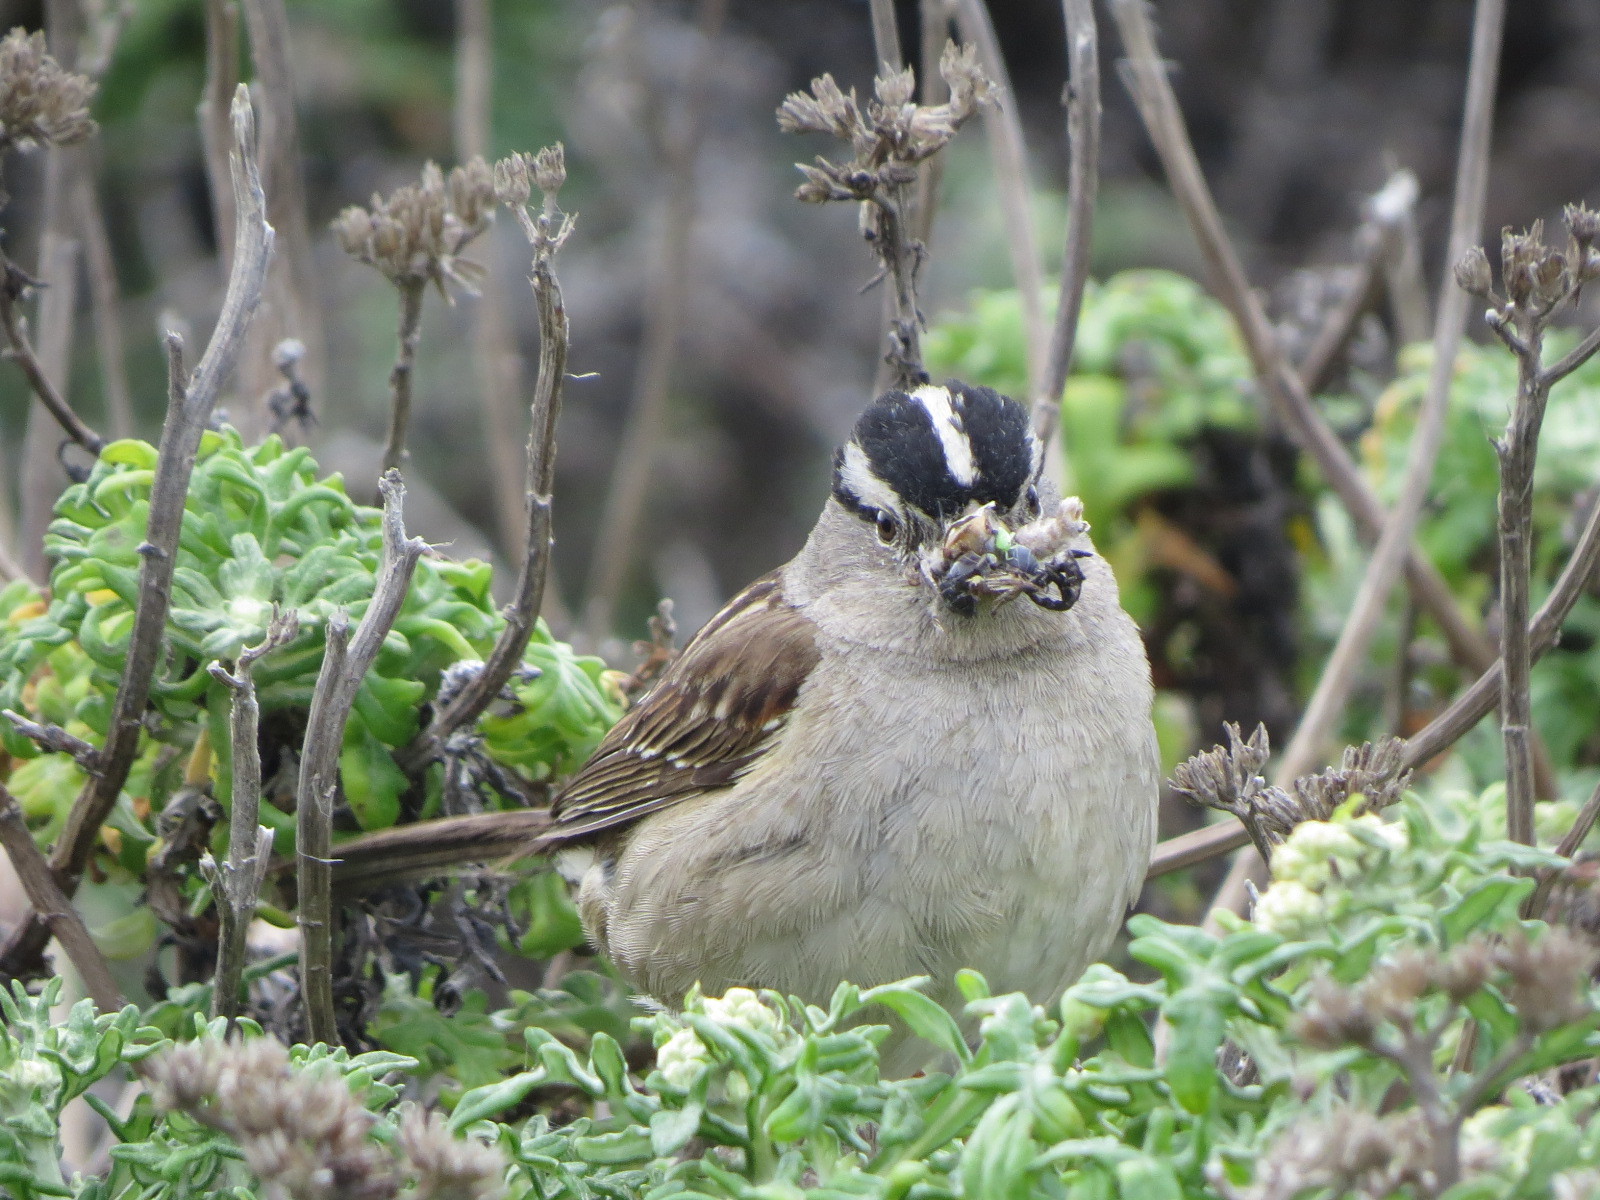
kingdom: Animalia
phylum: Chordata
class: Aves
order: Passeriformes
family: Passerellidae
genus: Zonotrichia
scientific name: Zonotrichia leucophrys
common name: White-crowned sparrow
